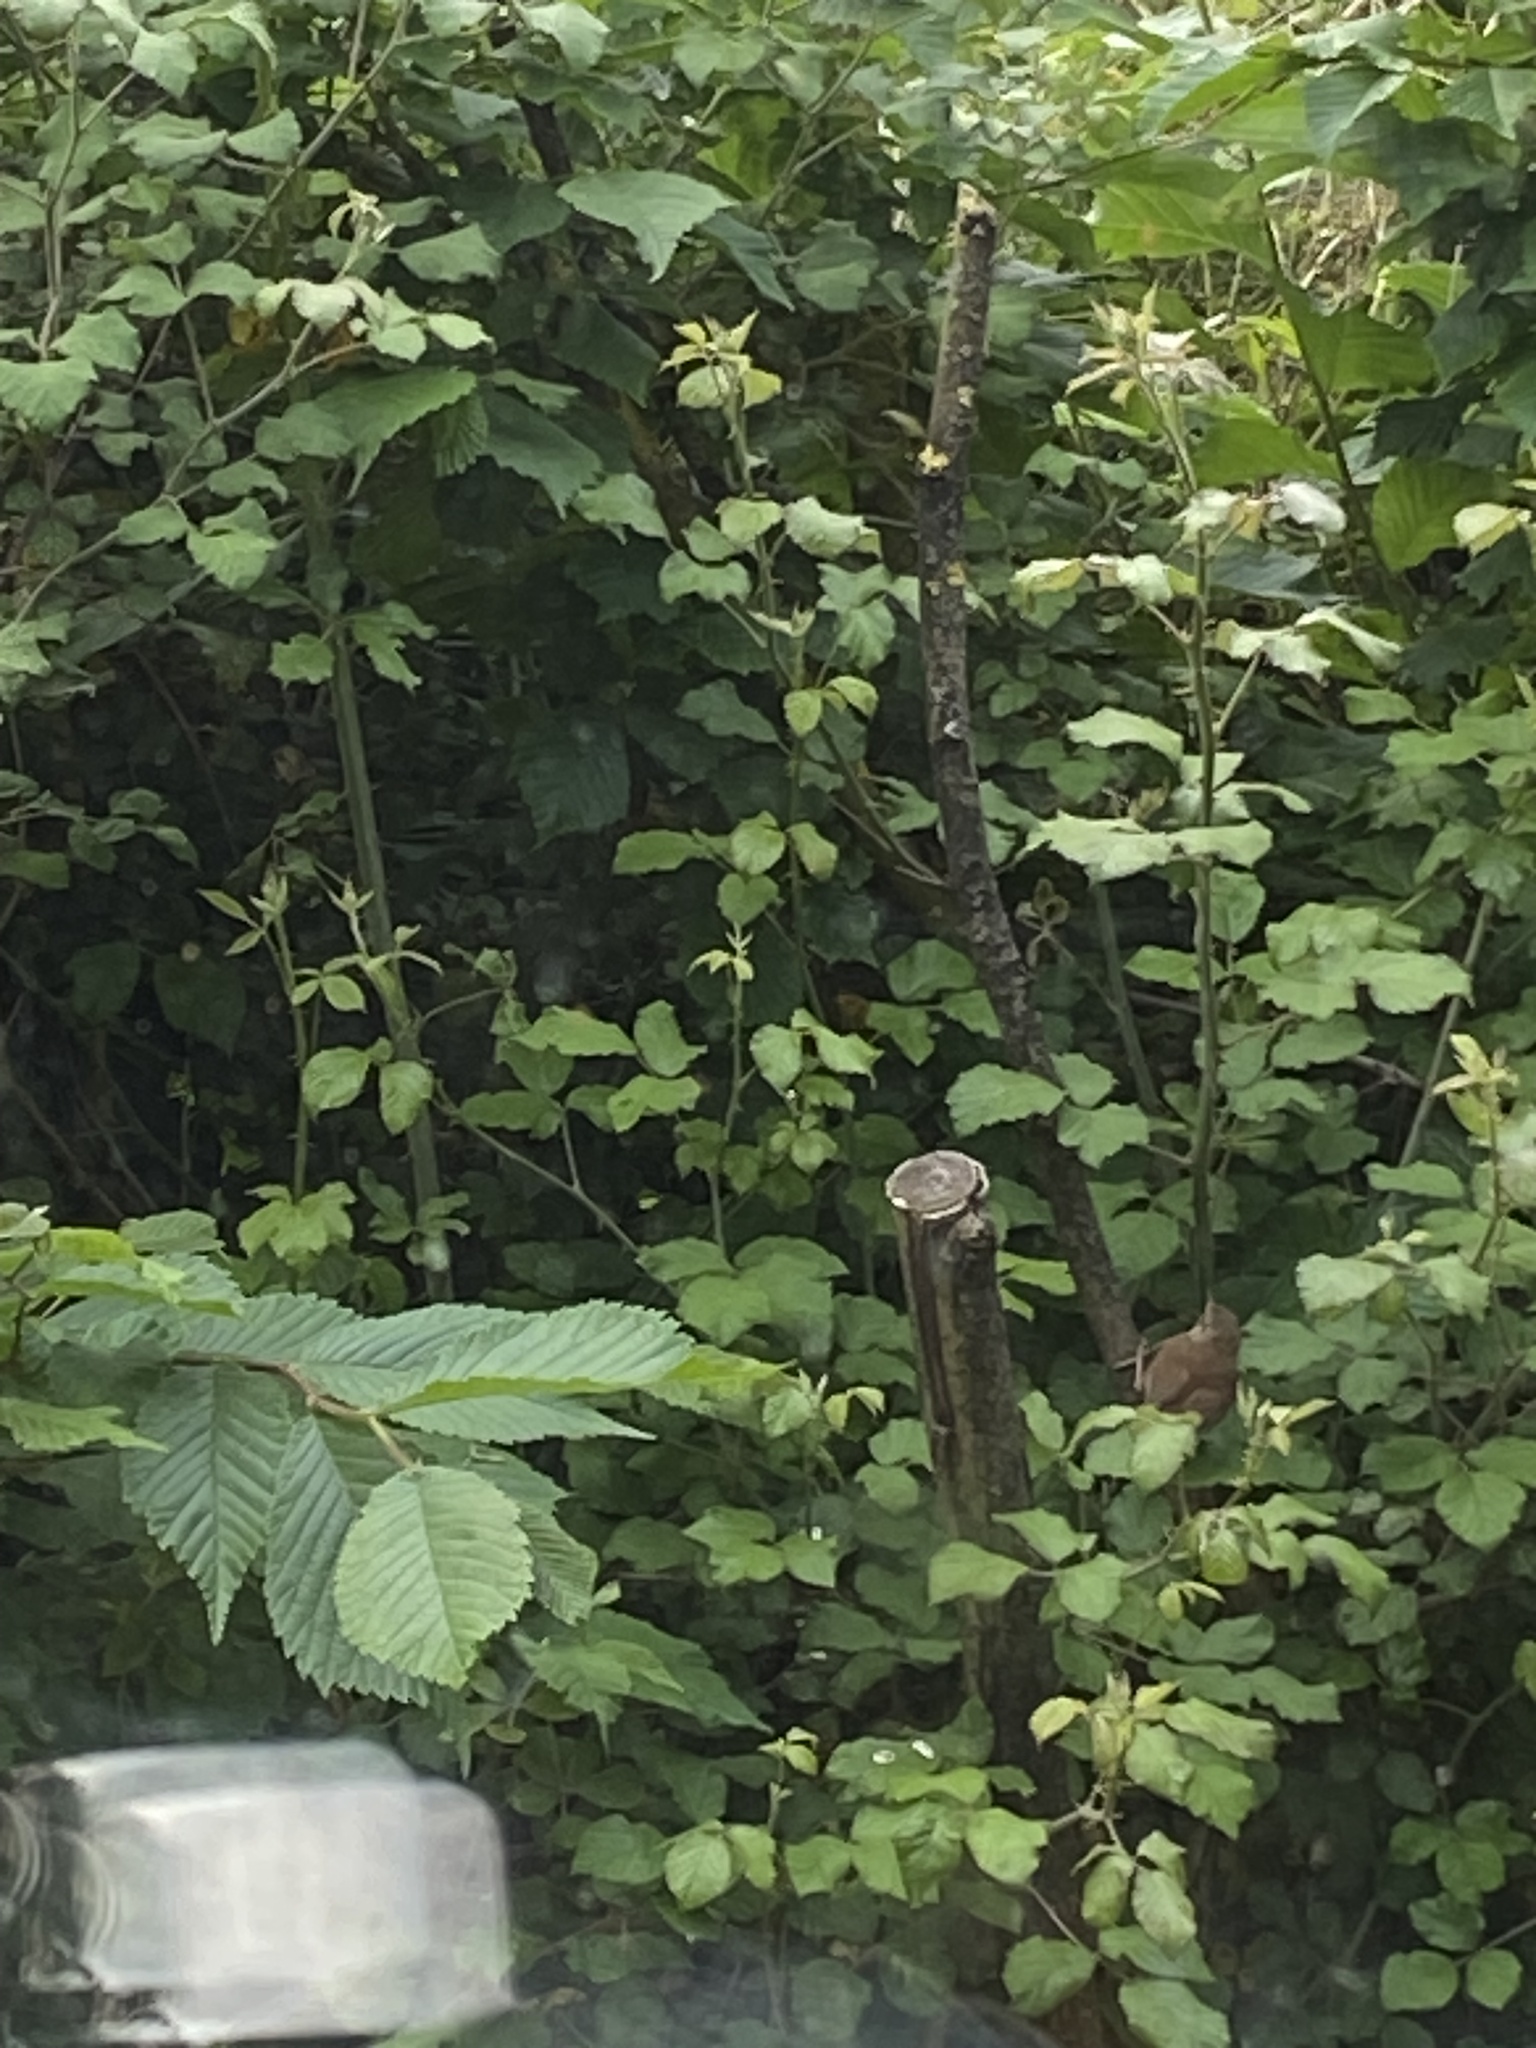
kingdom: Animalia
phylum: Chordata
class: Aves
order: Passeriformes
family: Troglodytidae
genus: Troglodytes
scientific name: Troglodytes troglodytes
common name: Eurasian wren
